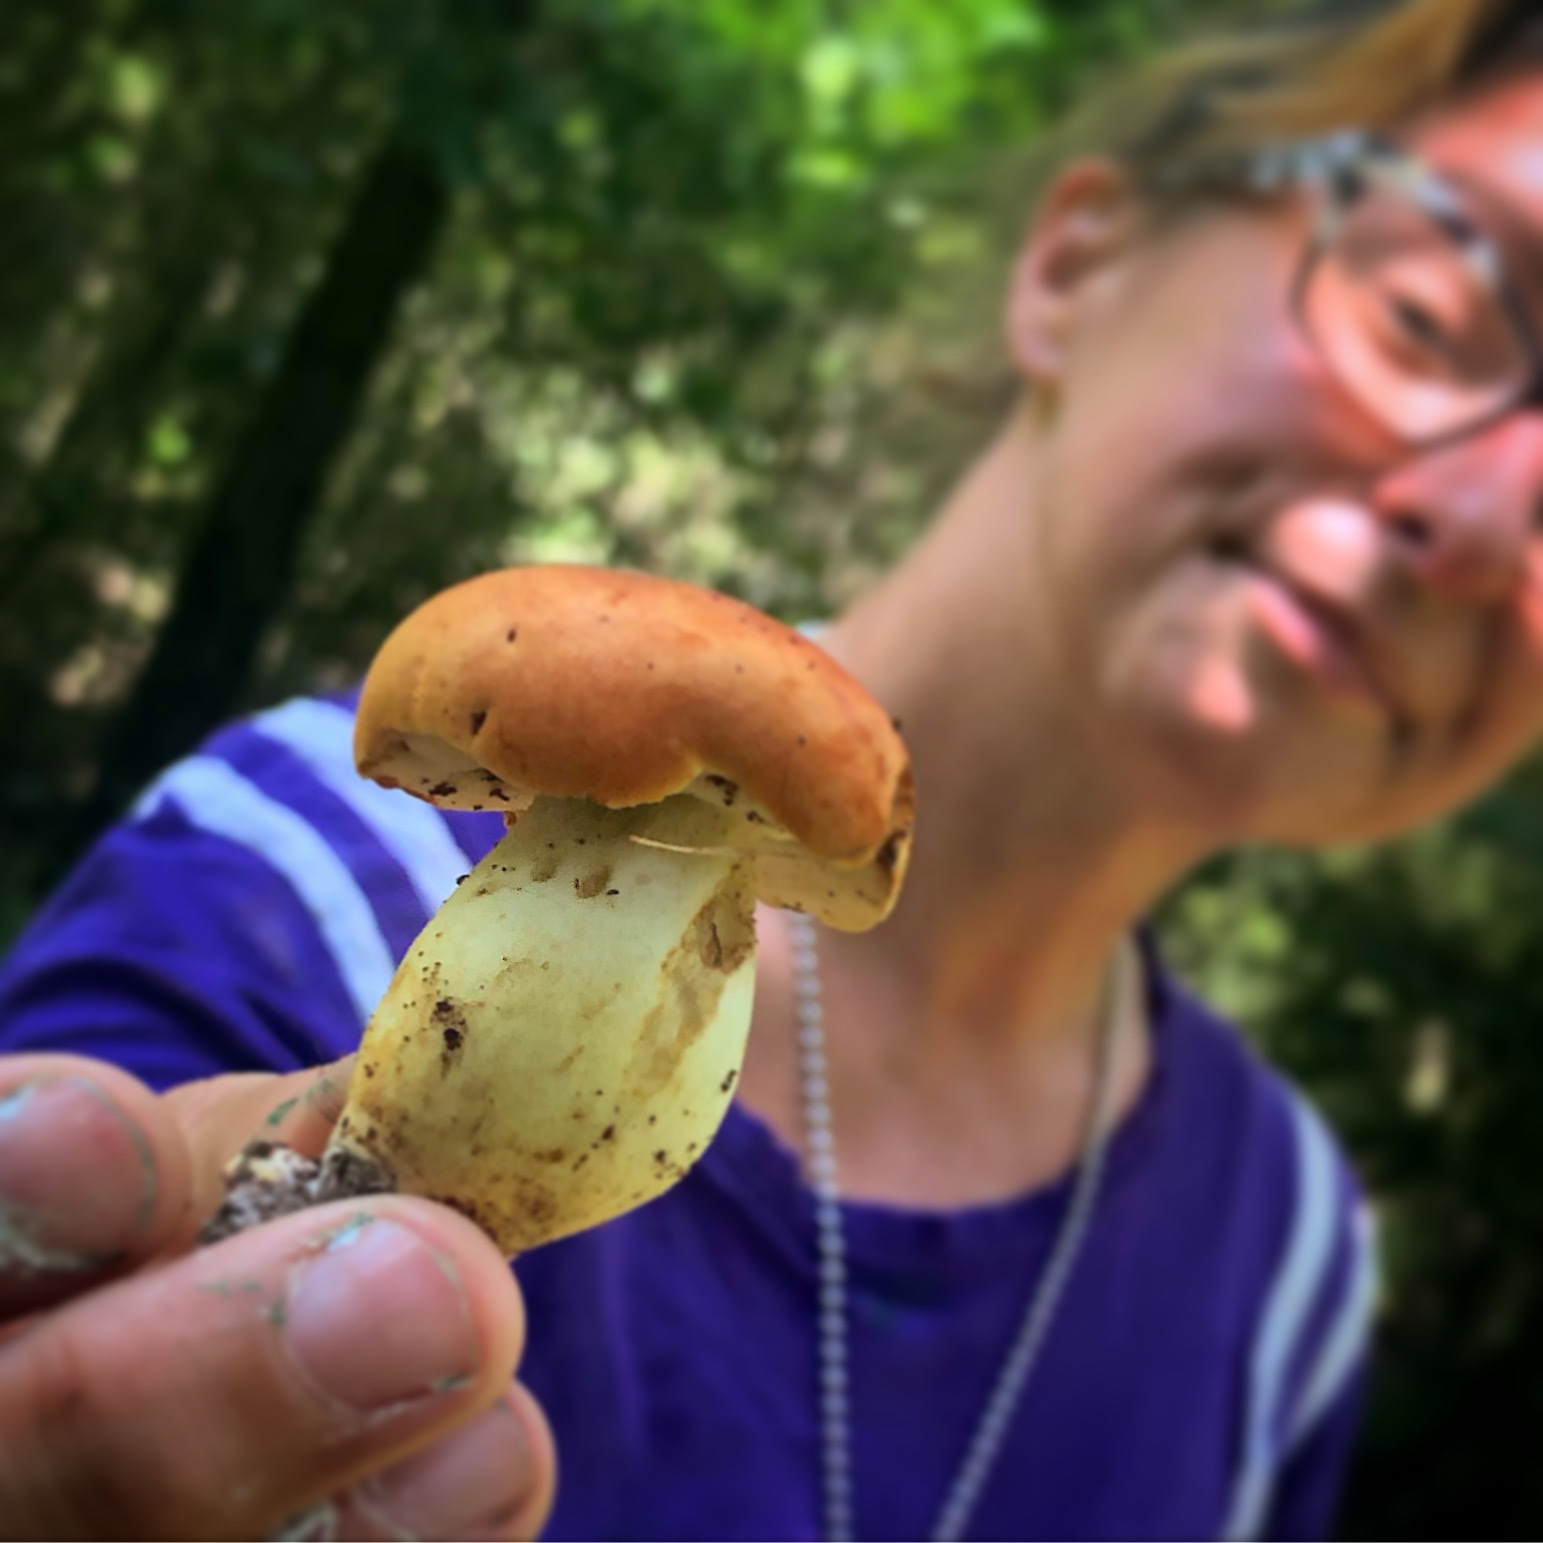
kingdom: Fungi
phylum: Basidiomycota
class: Agaricomycetes
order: Boletales
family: Boletaceae
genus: Tylopilus
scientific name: Tylopilus balloui
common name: Burnt-orange bolete
